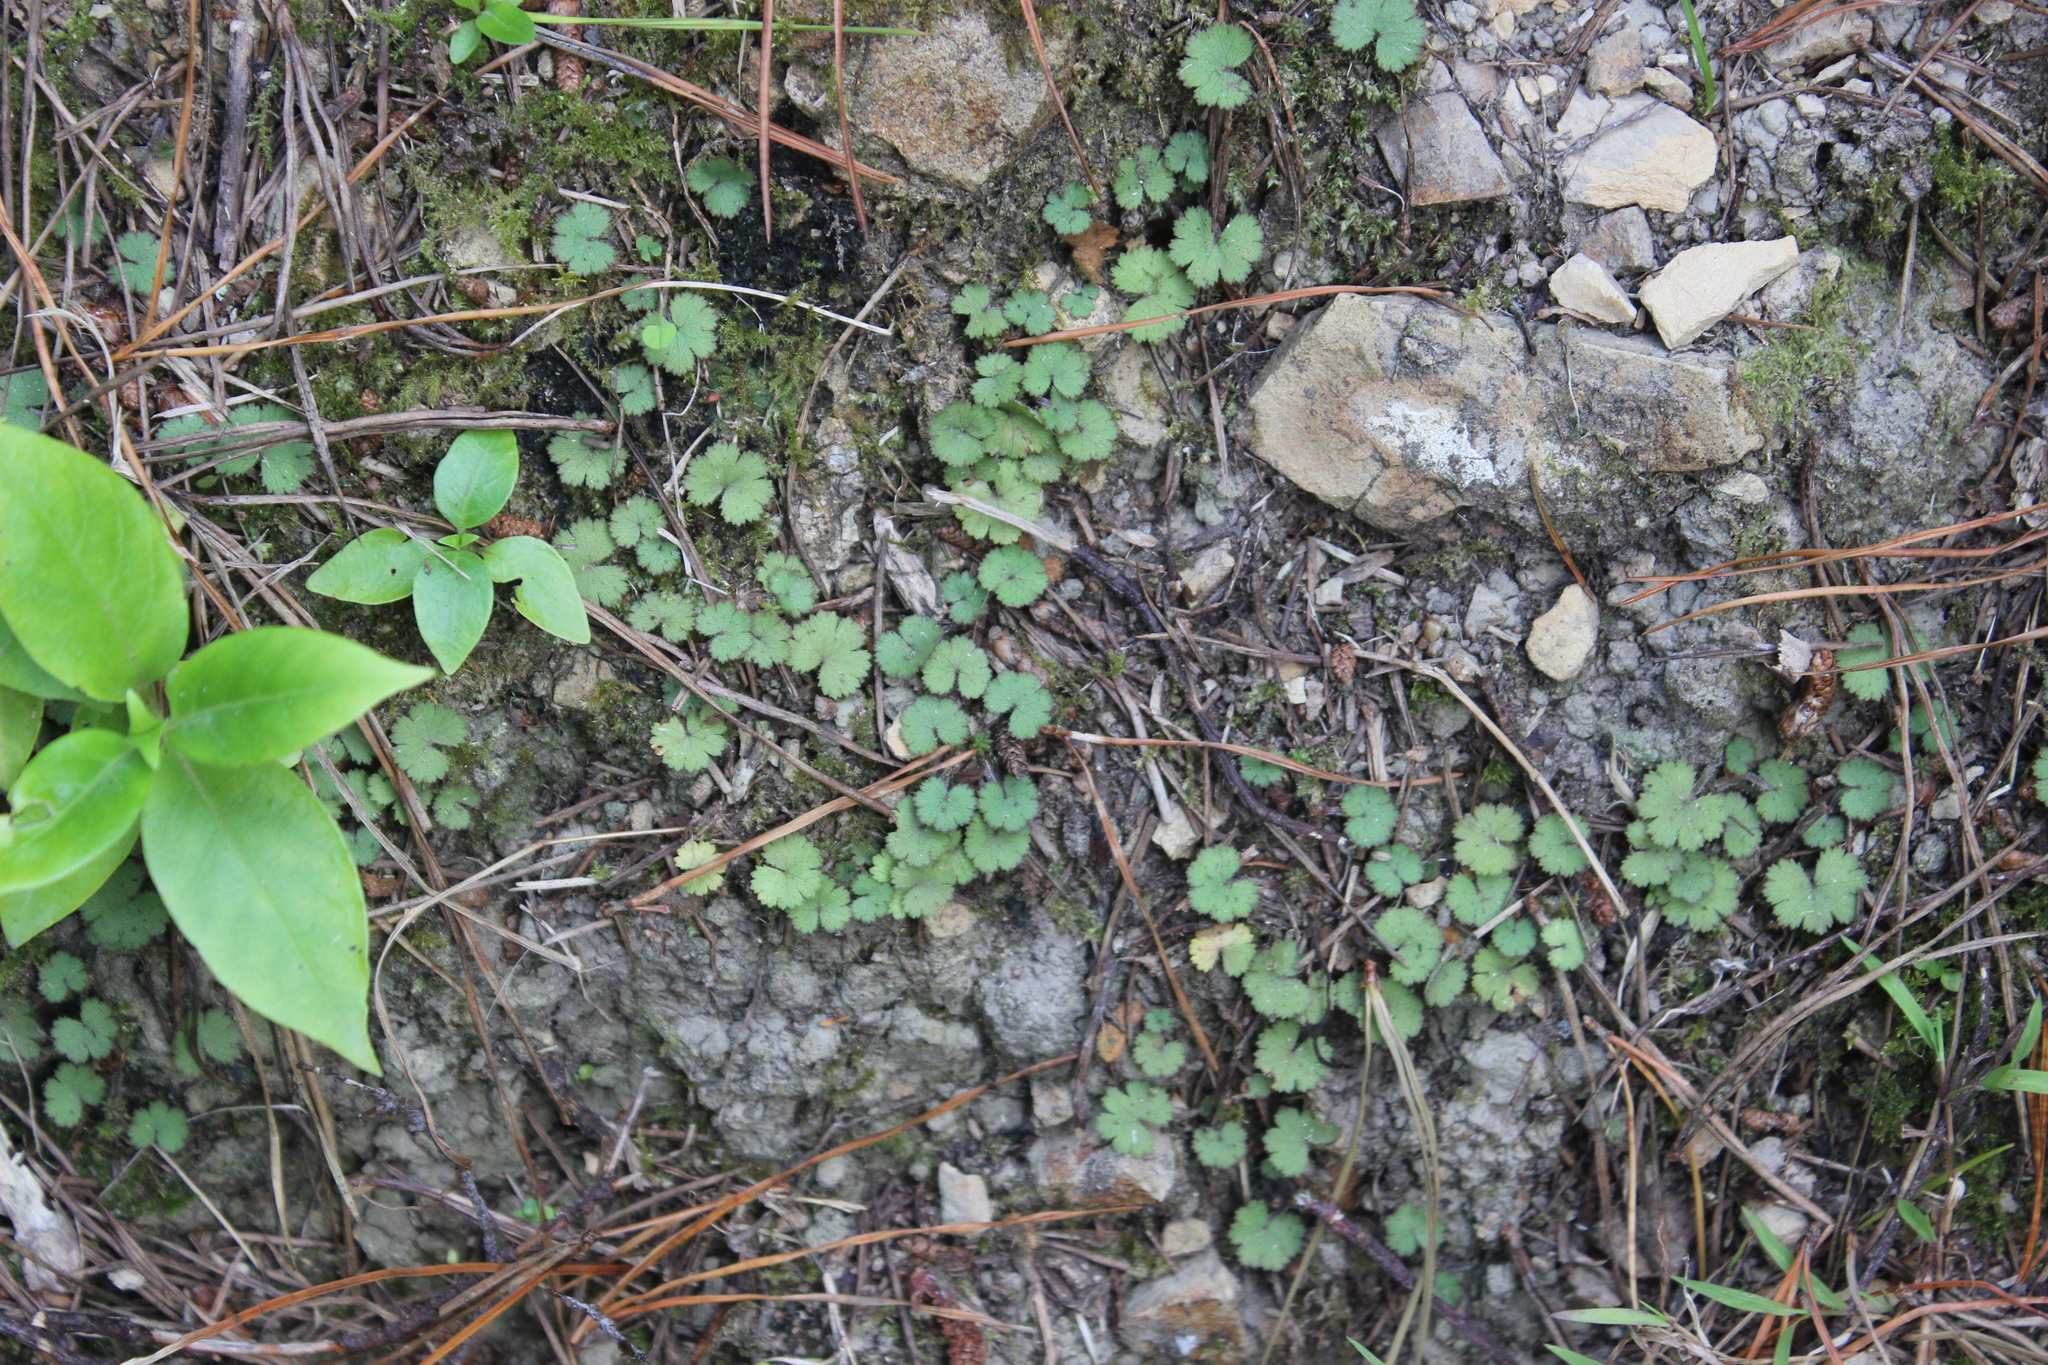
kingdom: Plantae
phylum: Tracheophyta
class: Magnoliopsida
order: Apiales
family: Araliaceae
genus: Hydrocotyle
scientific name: Hydrocotyle moschata
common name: Hairy pennywort
